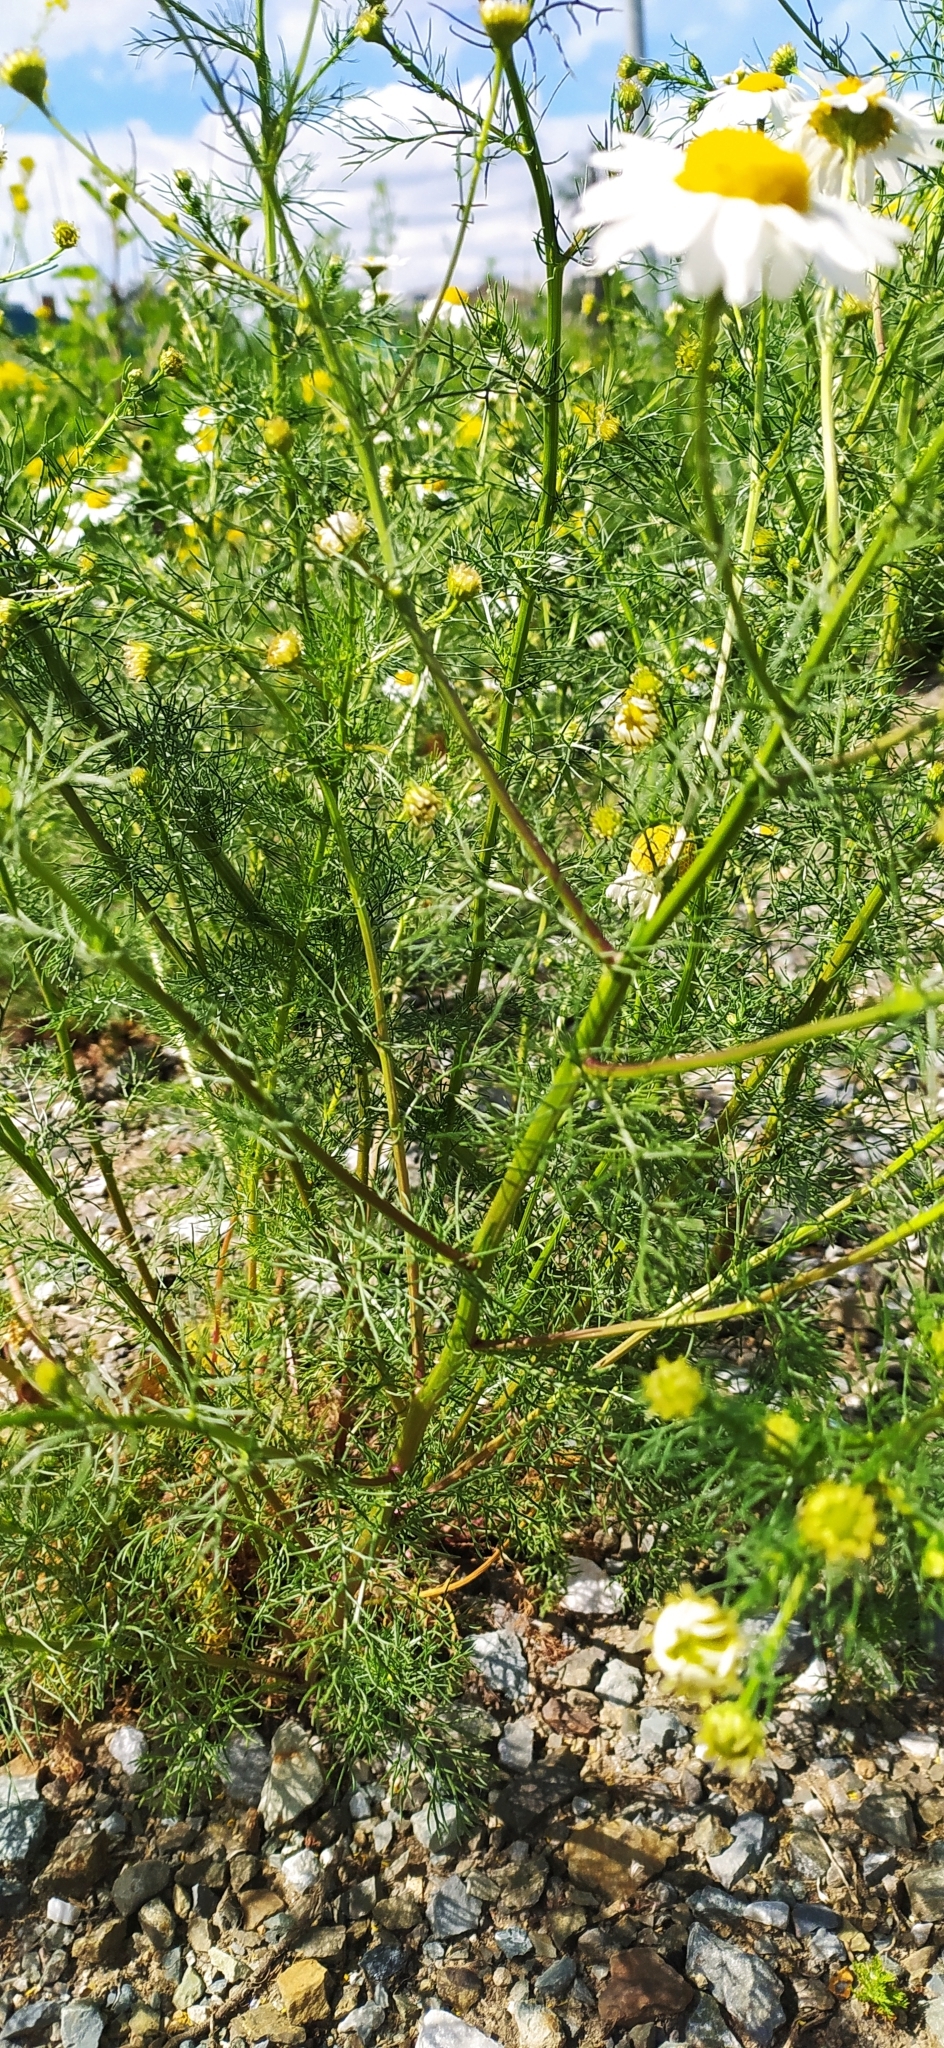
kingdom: Plantae
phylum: Tracheophyta
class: Magnoliopsida
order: Asterales
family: Asteraceae
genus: Tripleurospermum
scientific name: Tripleurospermum inodorum
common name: Scentless mayweed
